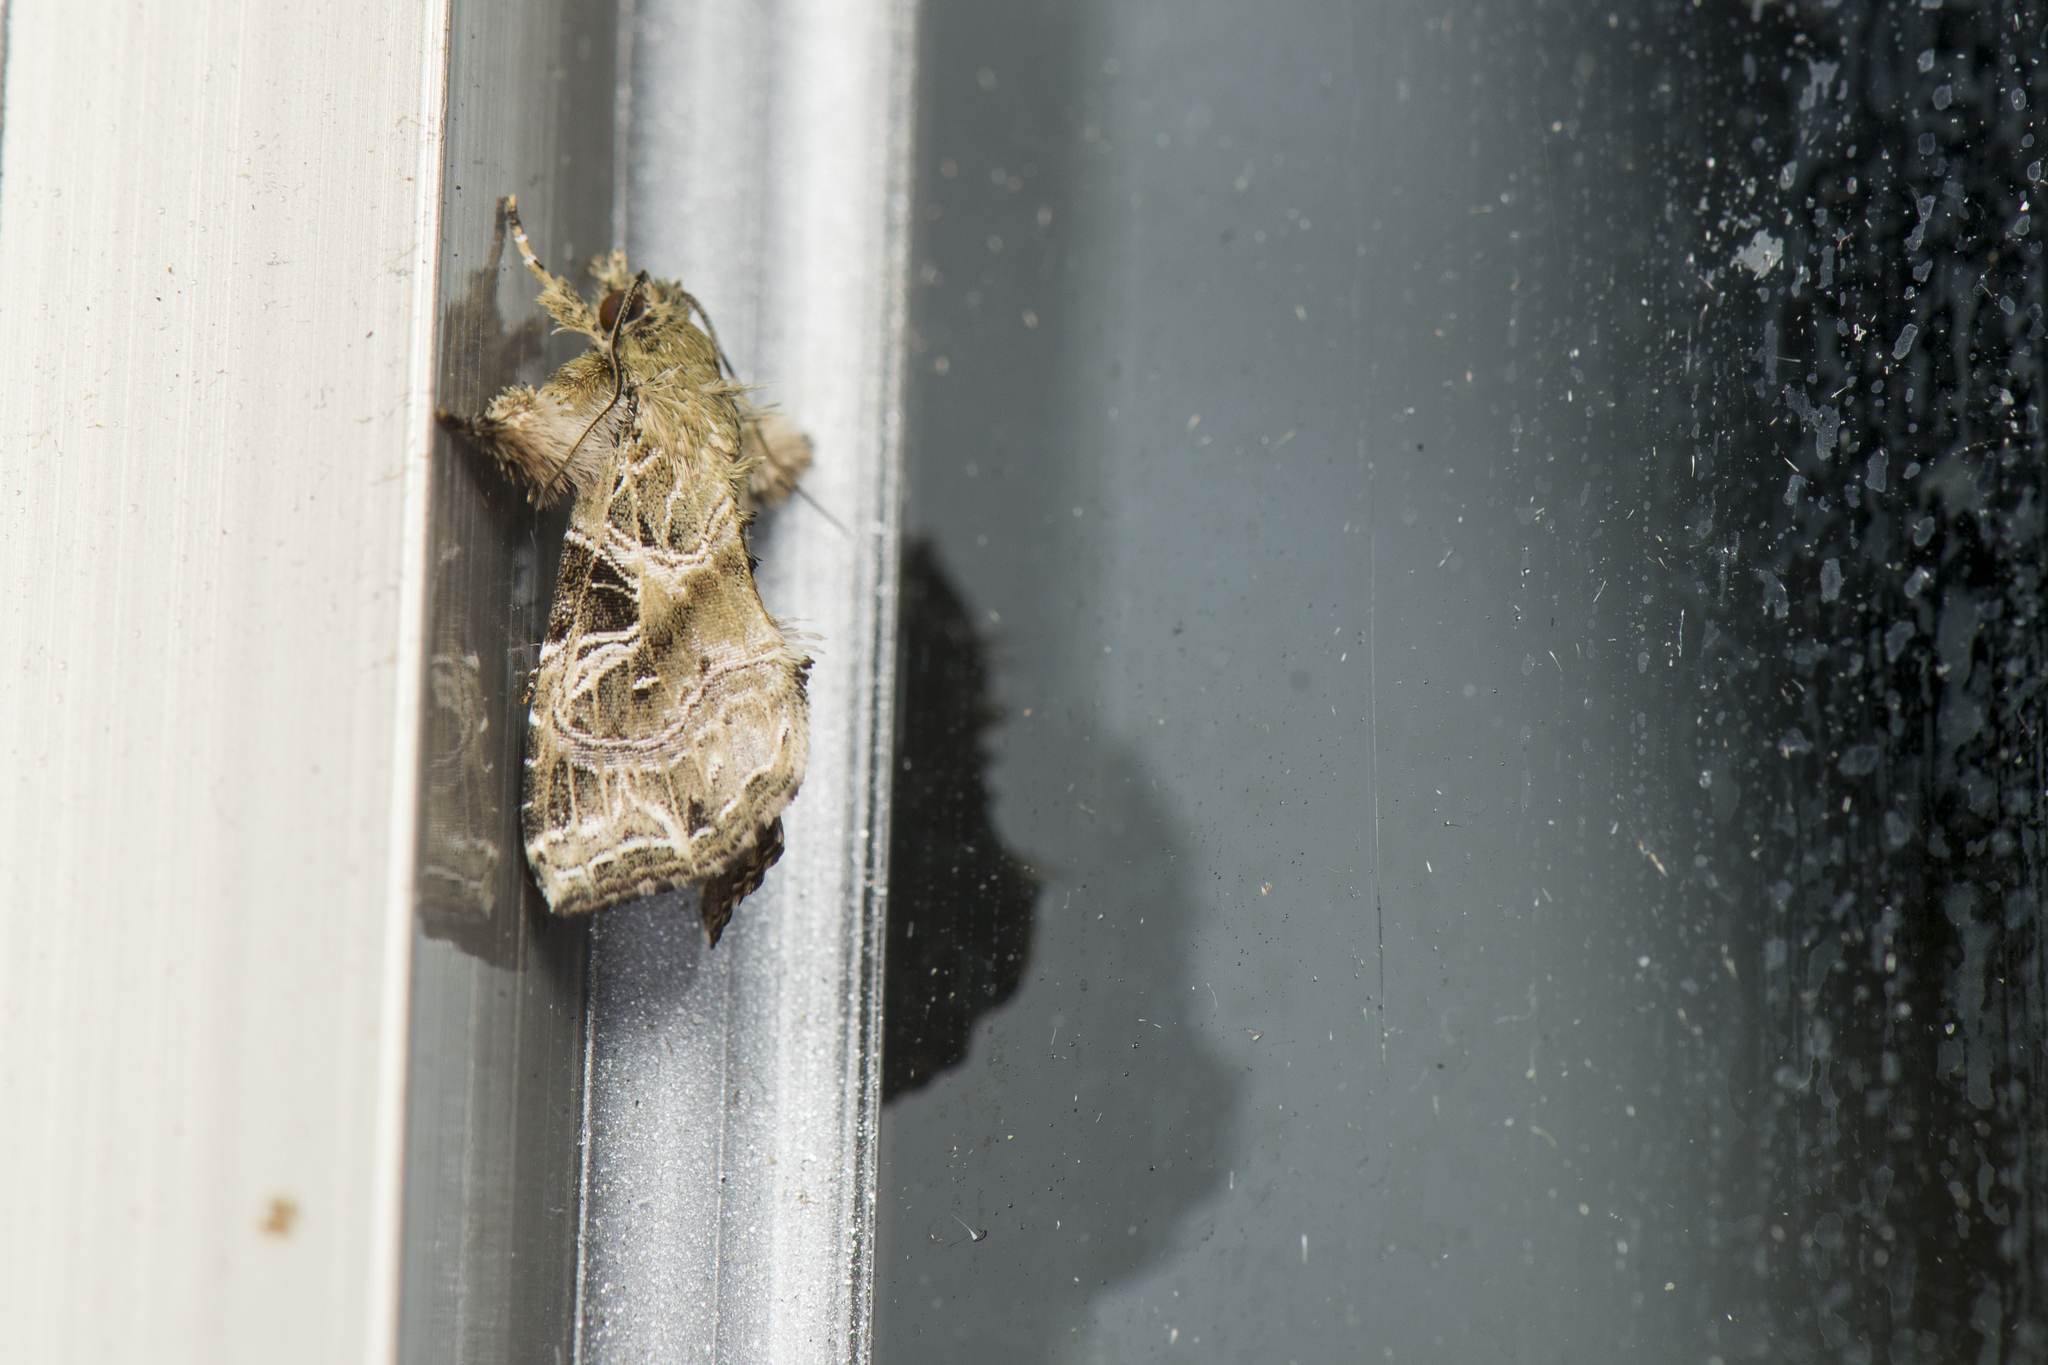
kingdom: Animalia
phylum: Arthropoda
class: Insecta
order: Lepidoptera
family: Noctuidae
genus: Callopistria
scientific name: Callopistria phaeogona
